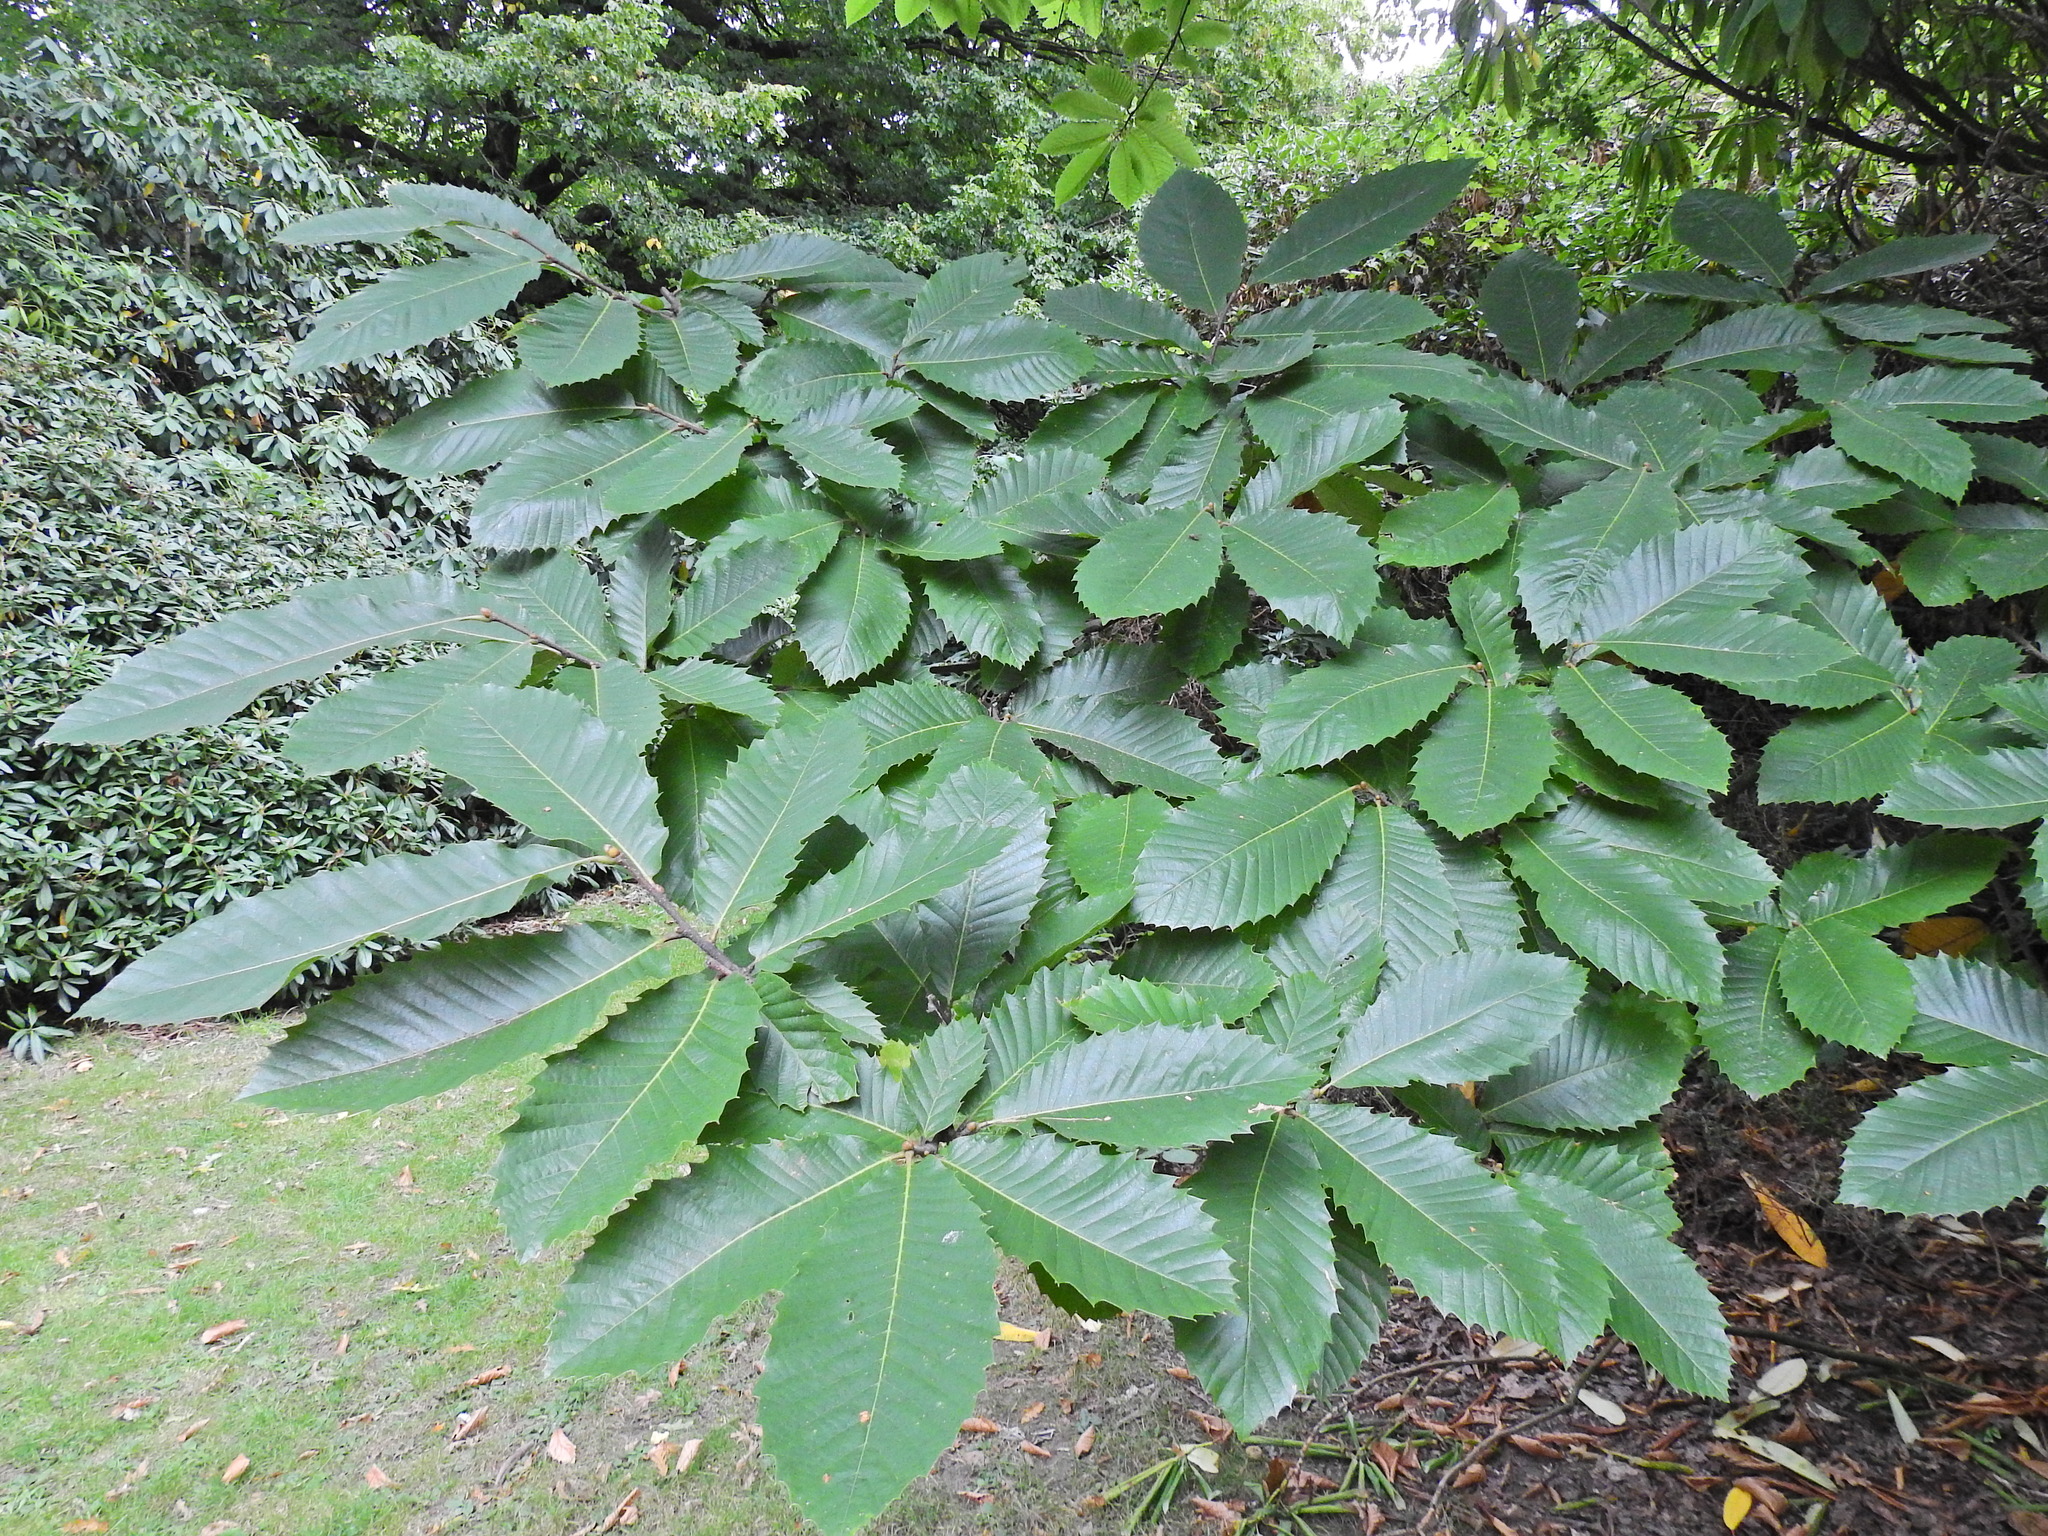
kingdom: Plantae
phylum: Tracheophyta
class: Magnoliopsida
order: Fagales
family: Fagaceae
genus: Castanea
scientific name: Castanea sativa
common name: Sweet chestnut
